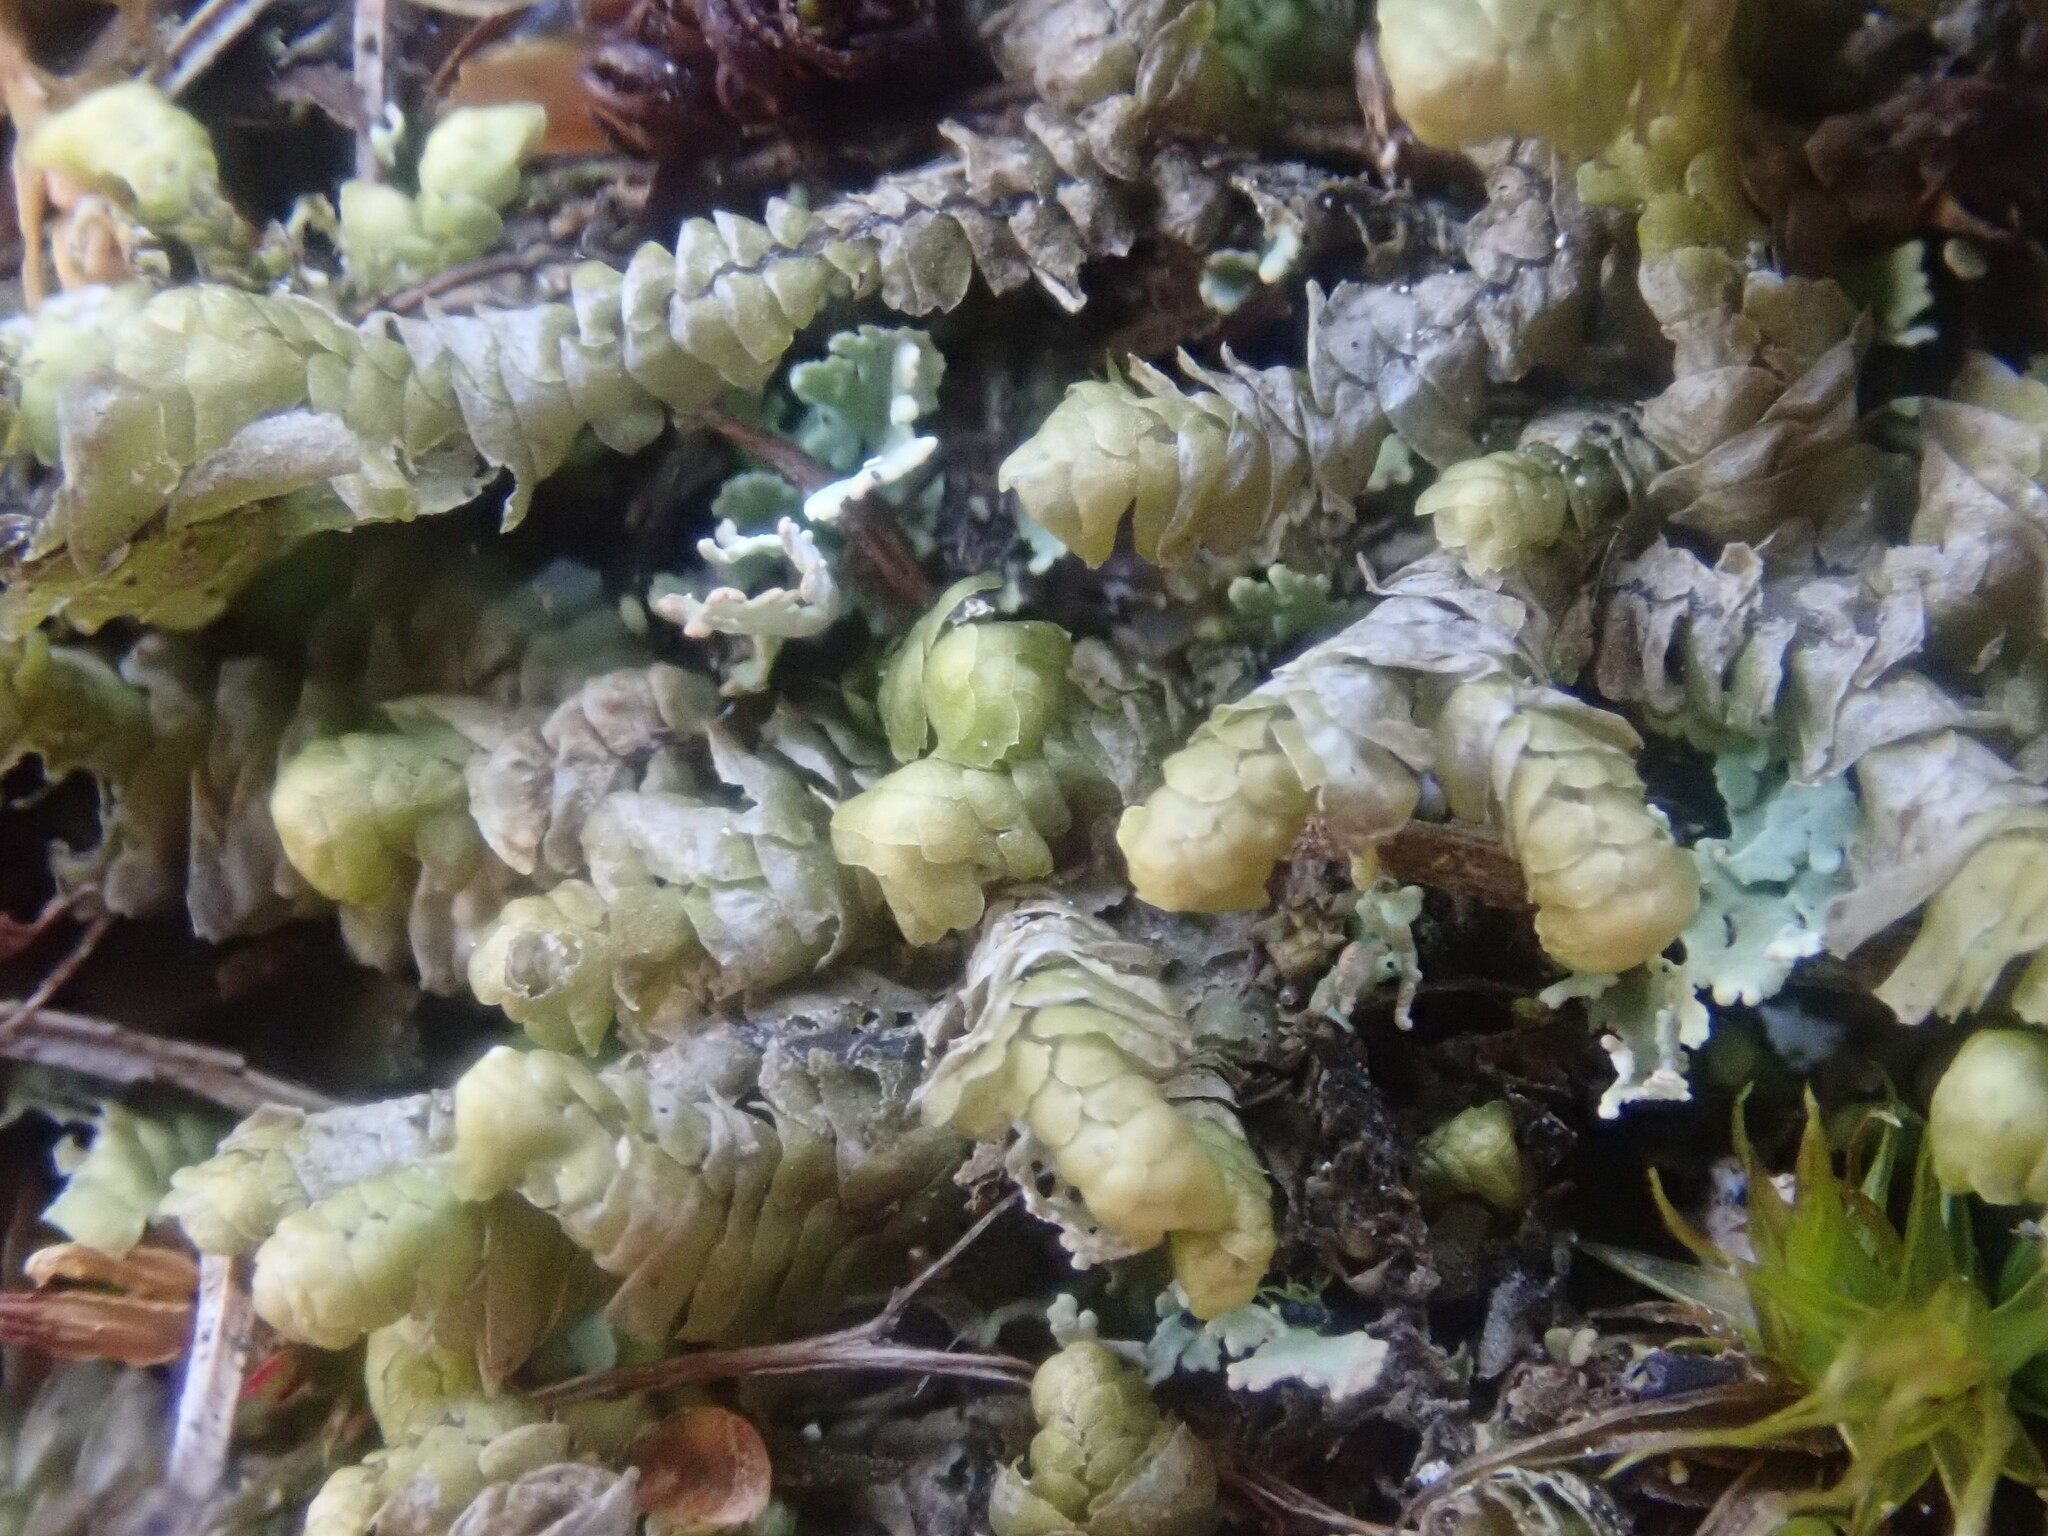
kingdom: Plantae
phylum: Marchantiophyta
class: Jungermanniopsida
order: Jungermanniales
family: Lepidoziaceae
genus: Bazzania
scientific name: Bazzania trilobata
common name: Three-lobed whipwort
